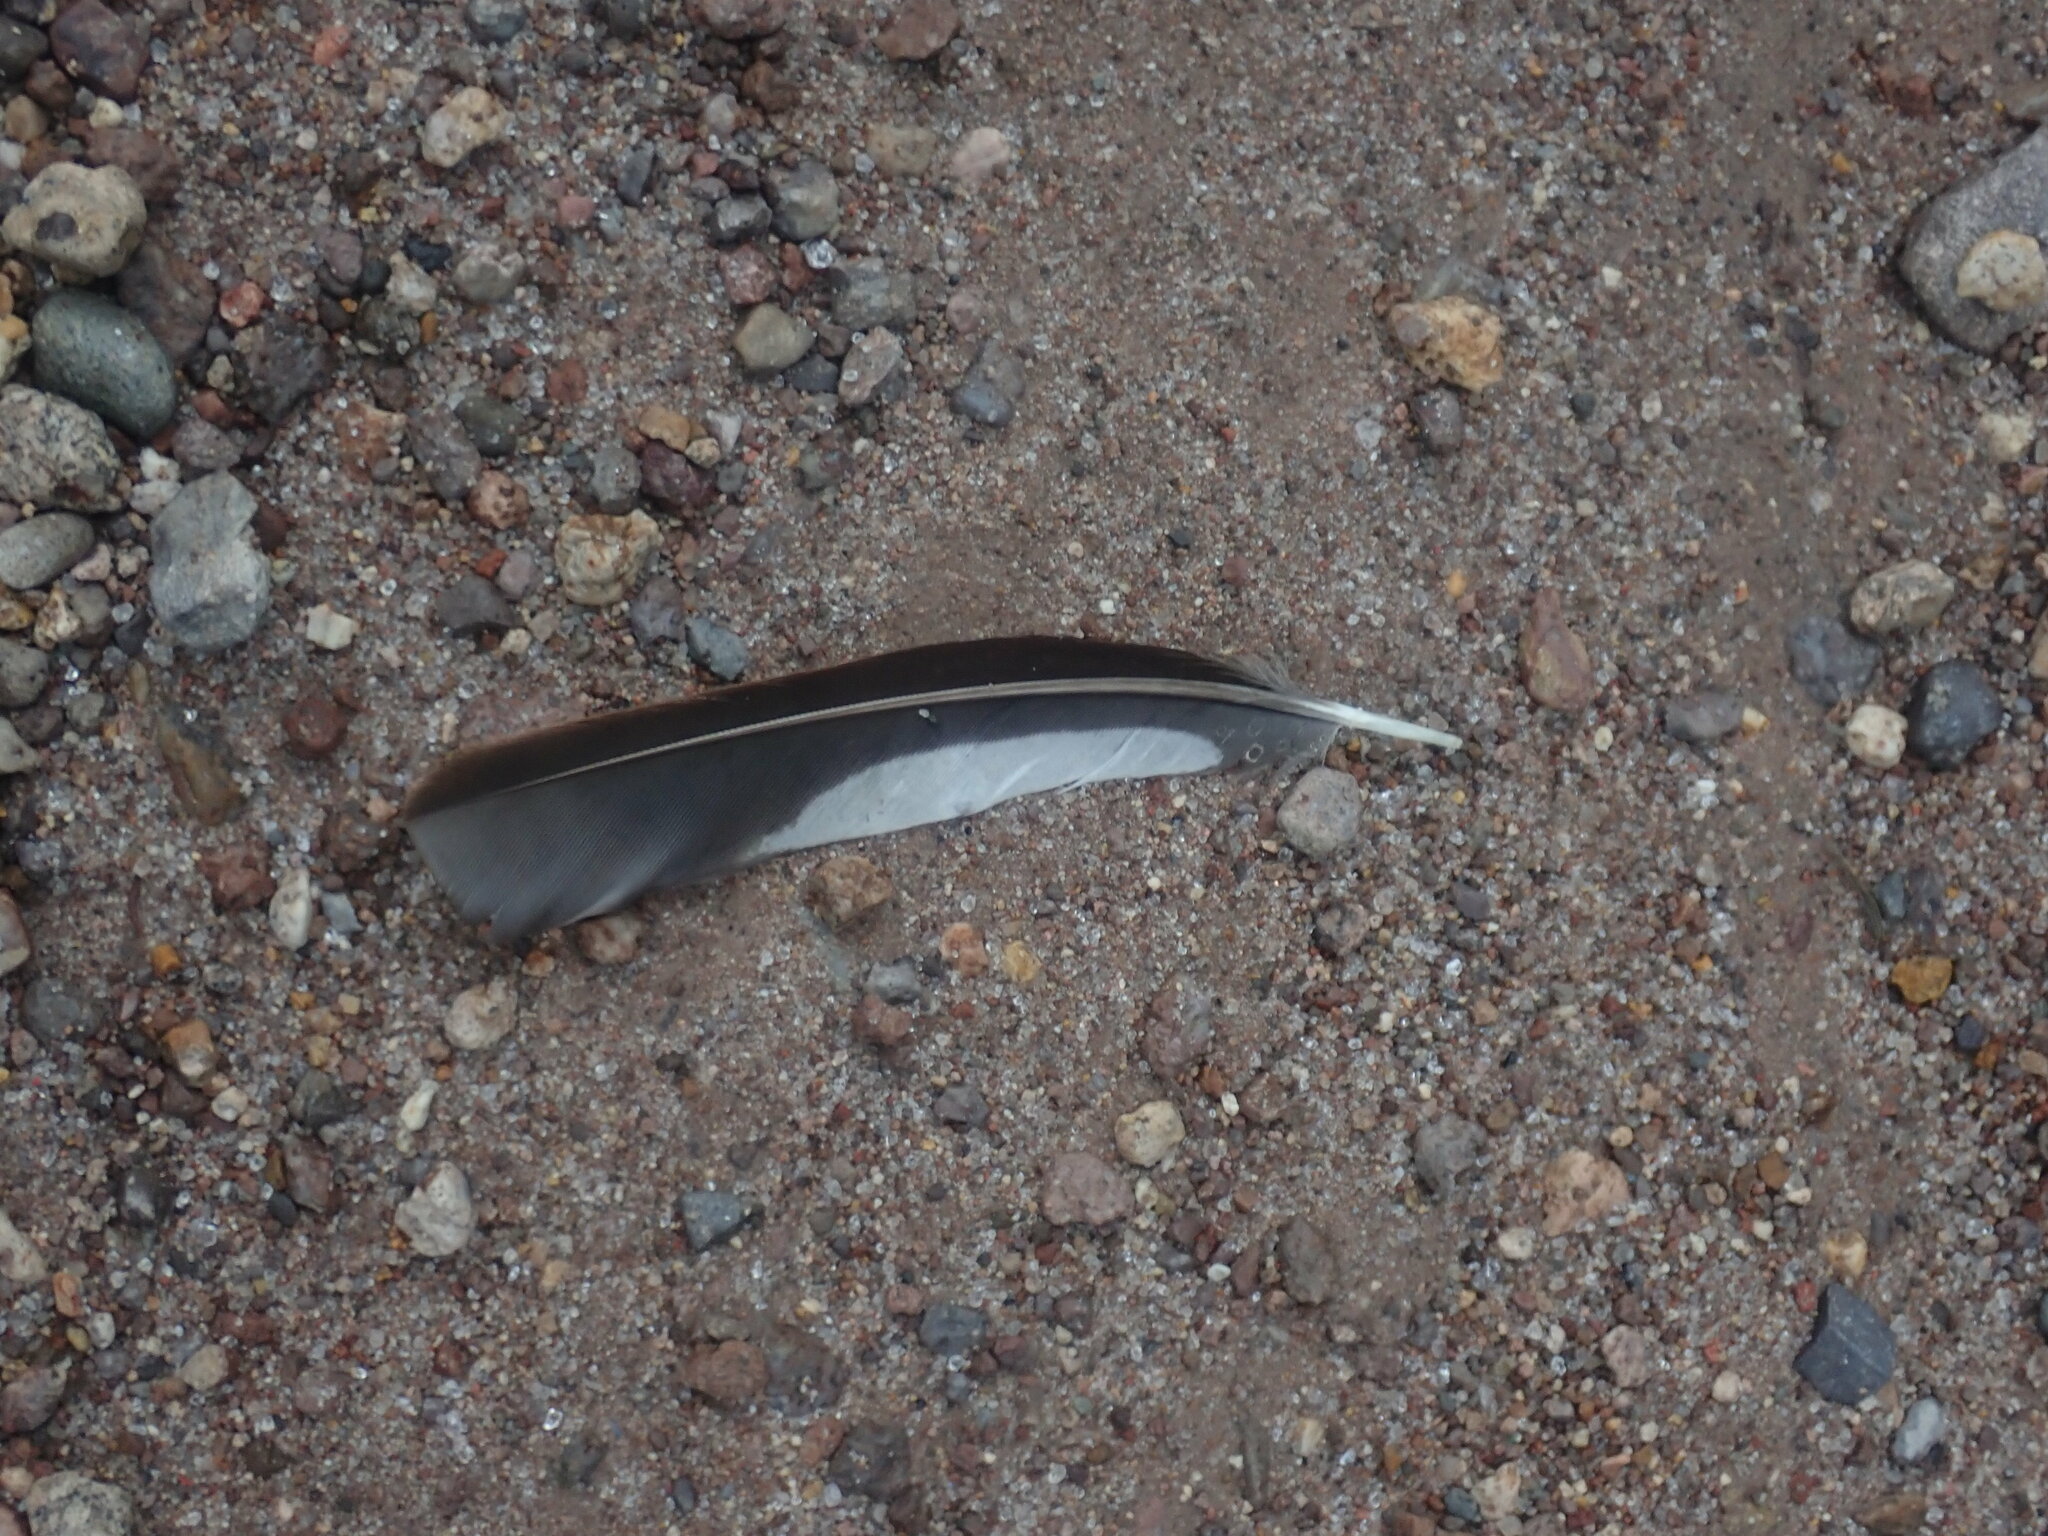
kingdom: Animalia
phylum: Chordata
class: Aves
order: Piciformes
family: Picidae
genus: Melanerpes
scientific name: Melanerpes formicivorus
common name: Acorn woodpecker
